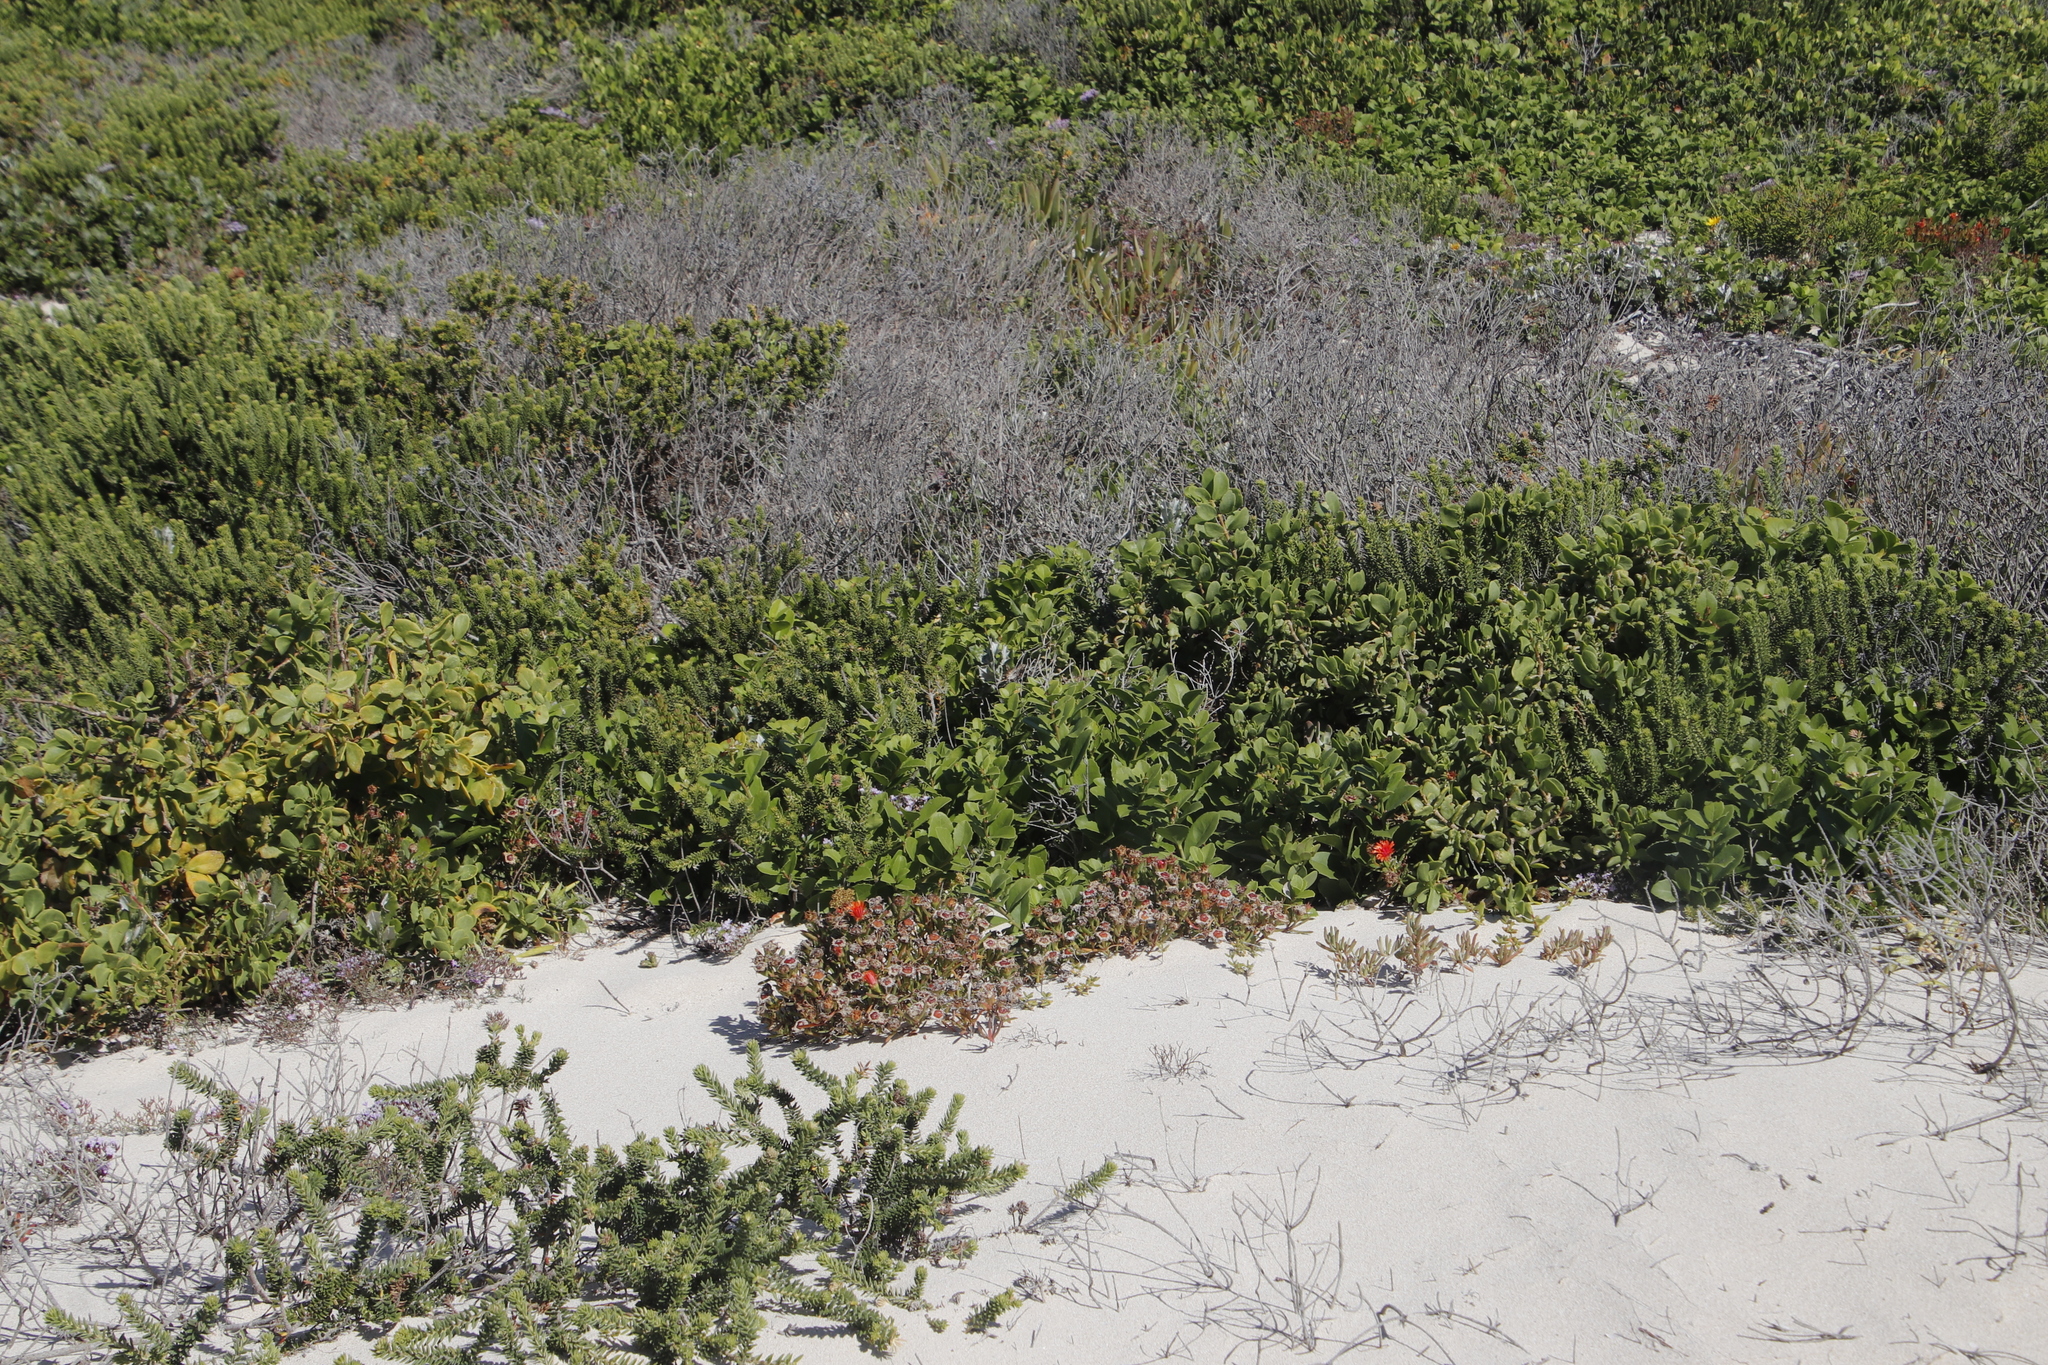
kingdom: Plantae
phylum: Tracheophyta
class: Magnoliopsida
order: Caryophyllales
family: Aizoaceae
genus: Lampranthus
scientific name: Lampranthus fergusoniae
